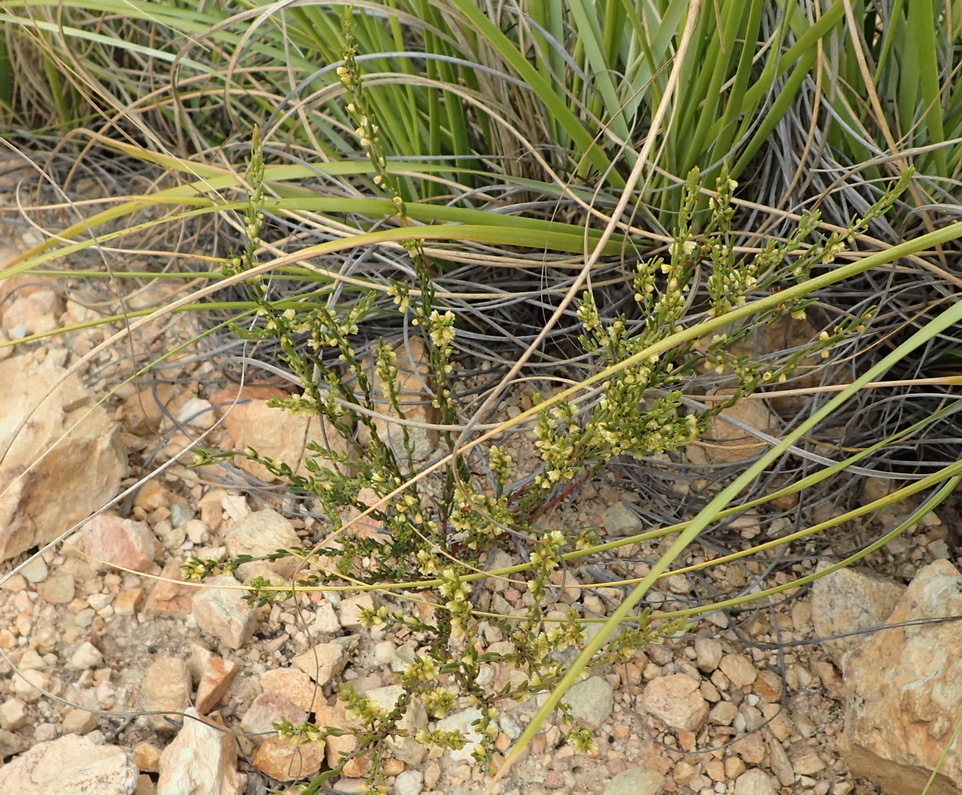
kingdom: Plantae
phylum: Tracheophyta
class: Magnoliopsida
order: Malpighiales
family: Peraceae
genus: Clutia
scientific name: Clutia ericoides
